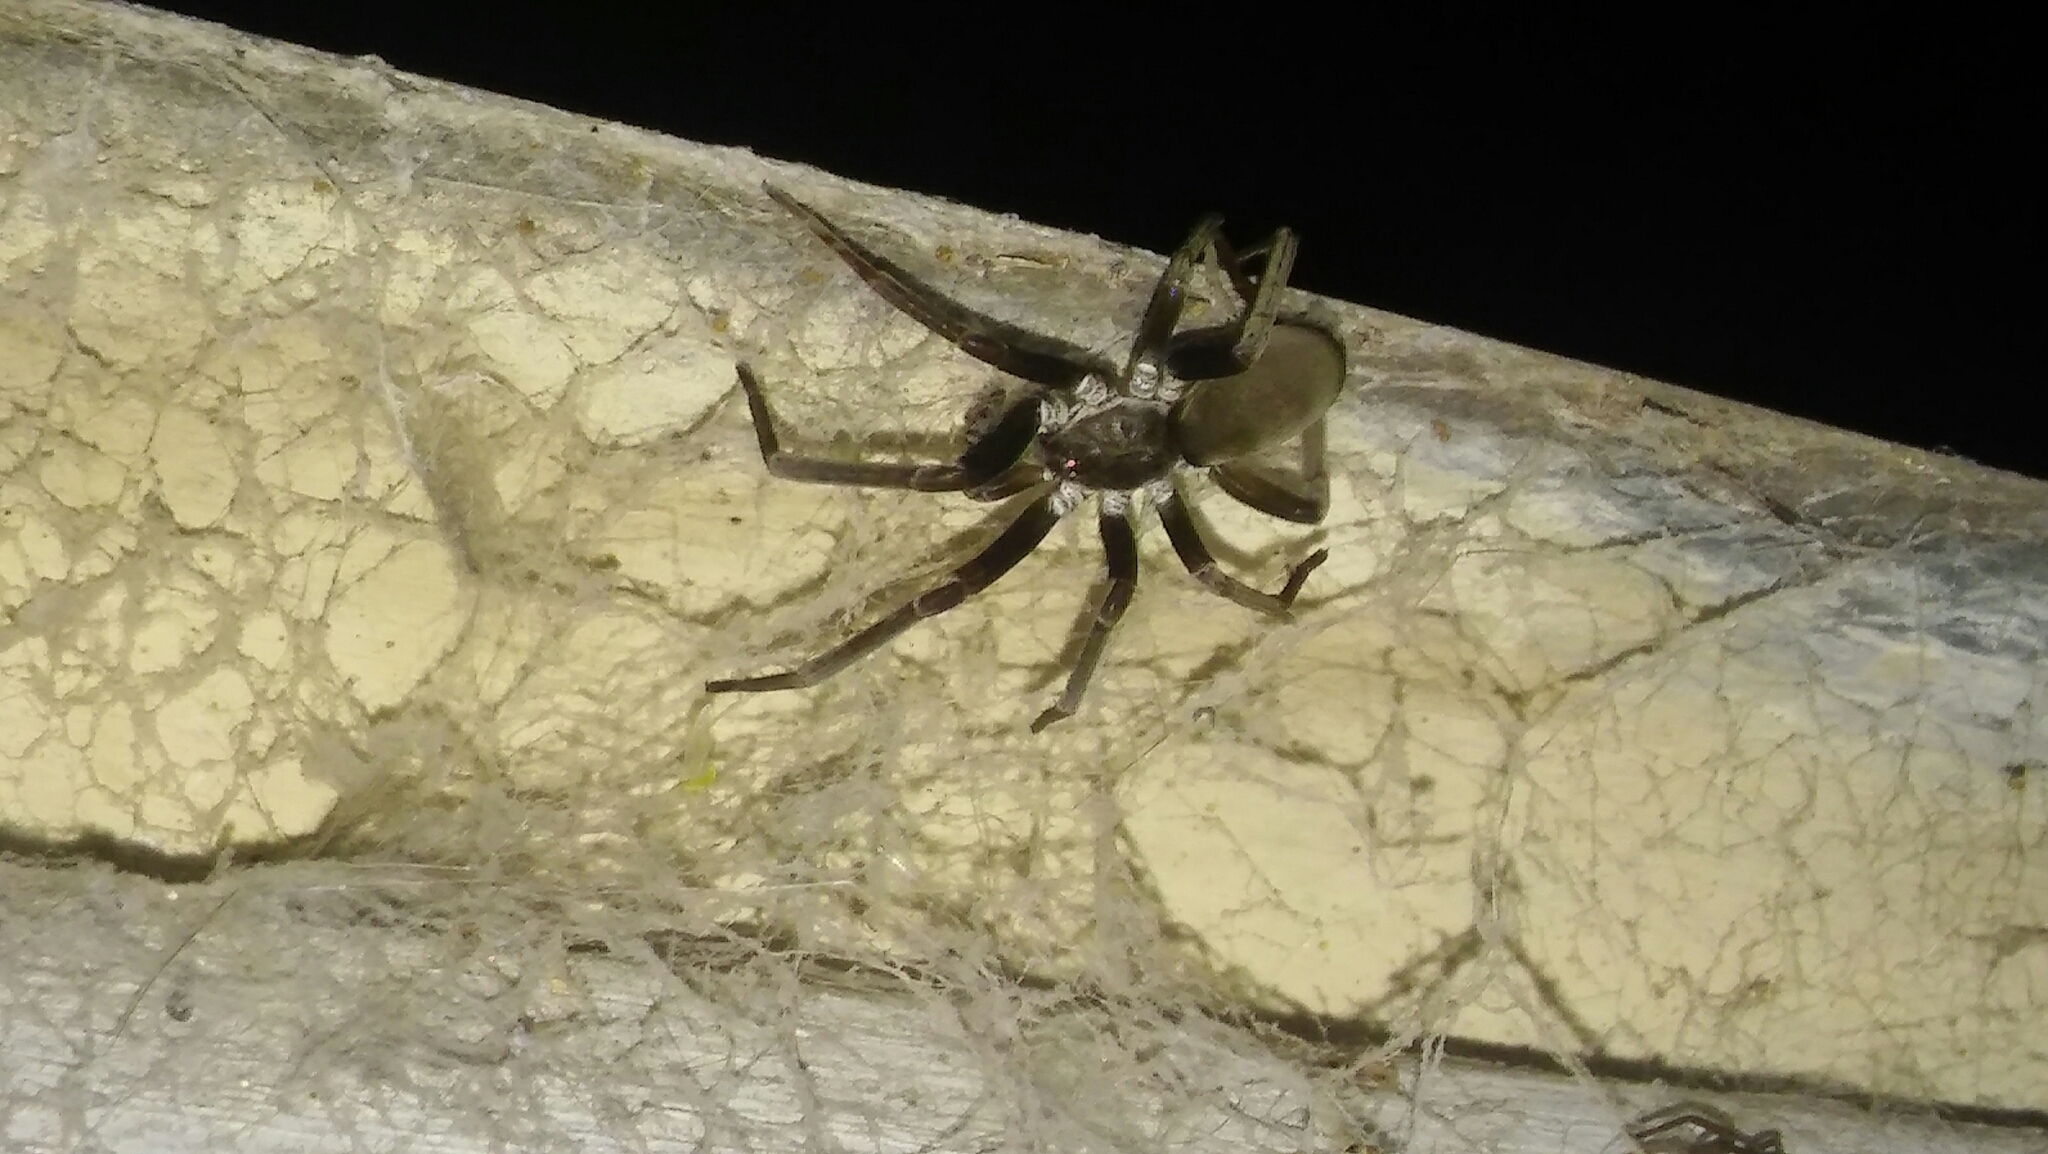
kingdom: Animalia
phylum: Arthropoda
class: Arachnida
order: Araneae
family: Filistatidae
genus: Kukulcania
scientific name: Kukulcania hibernalis
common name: Crevice weaver
